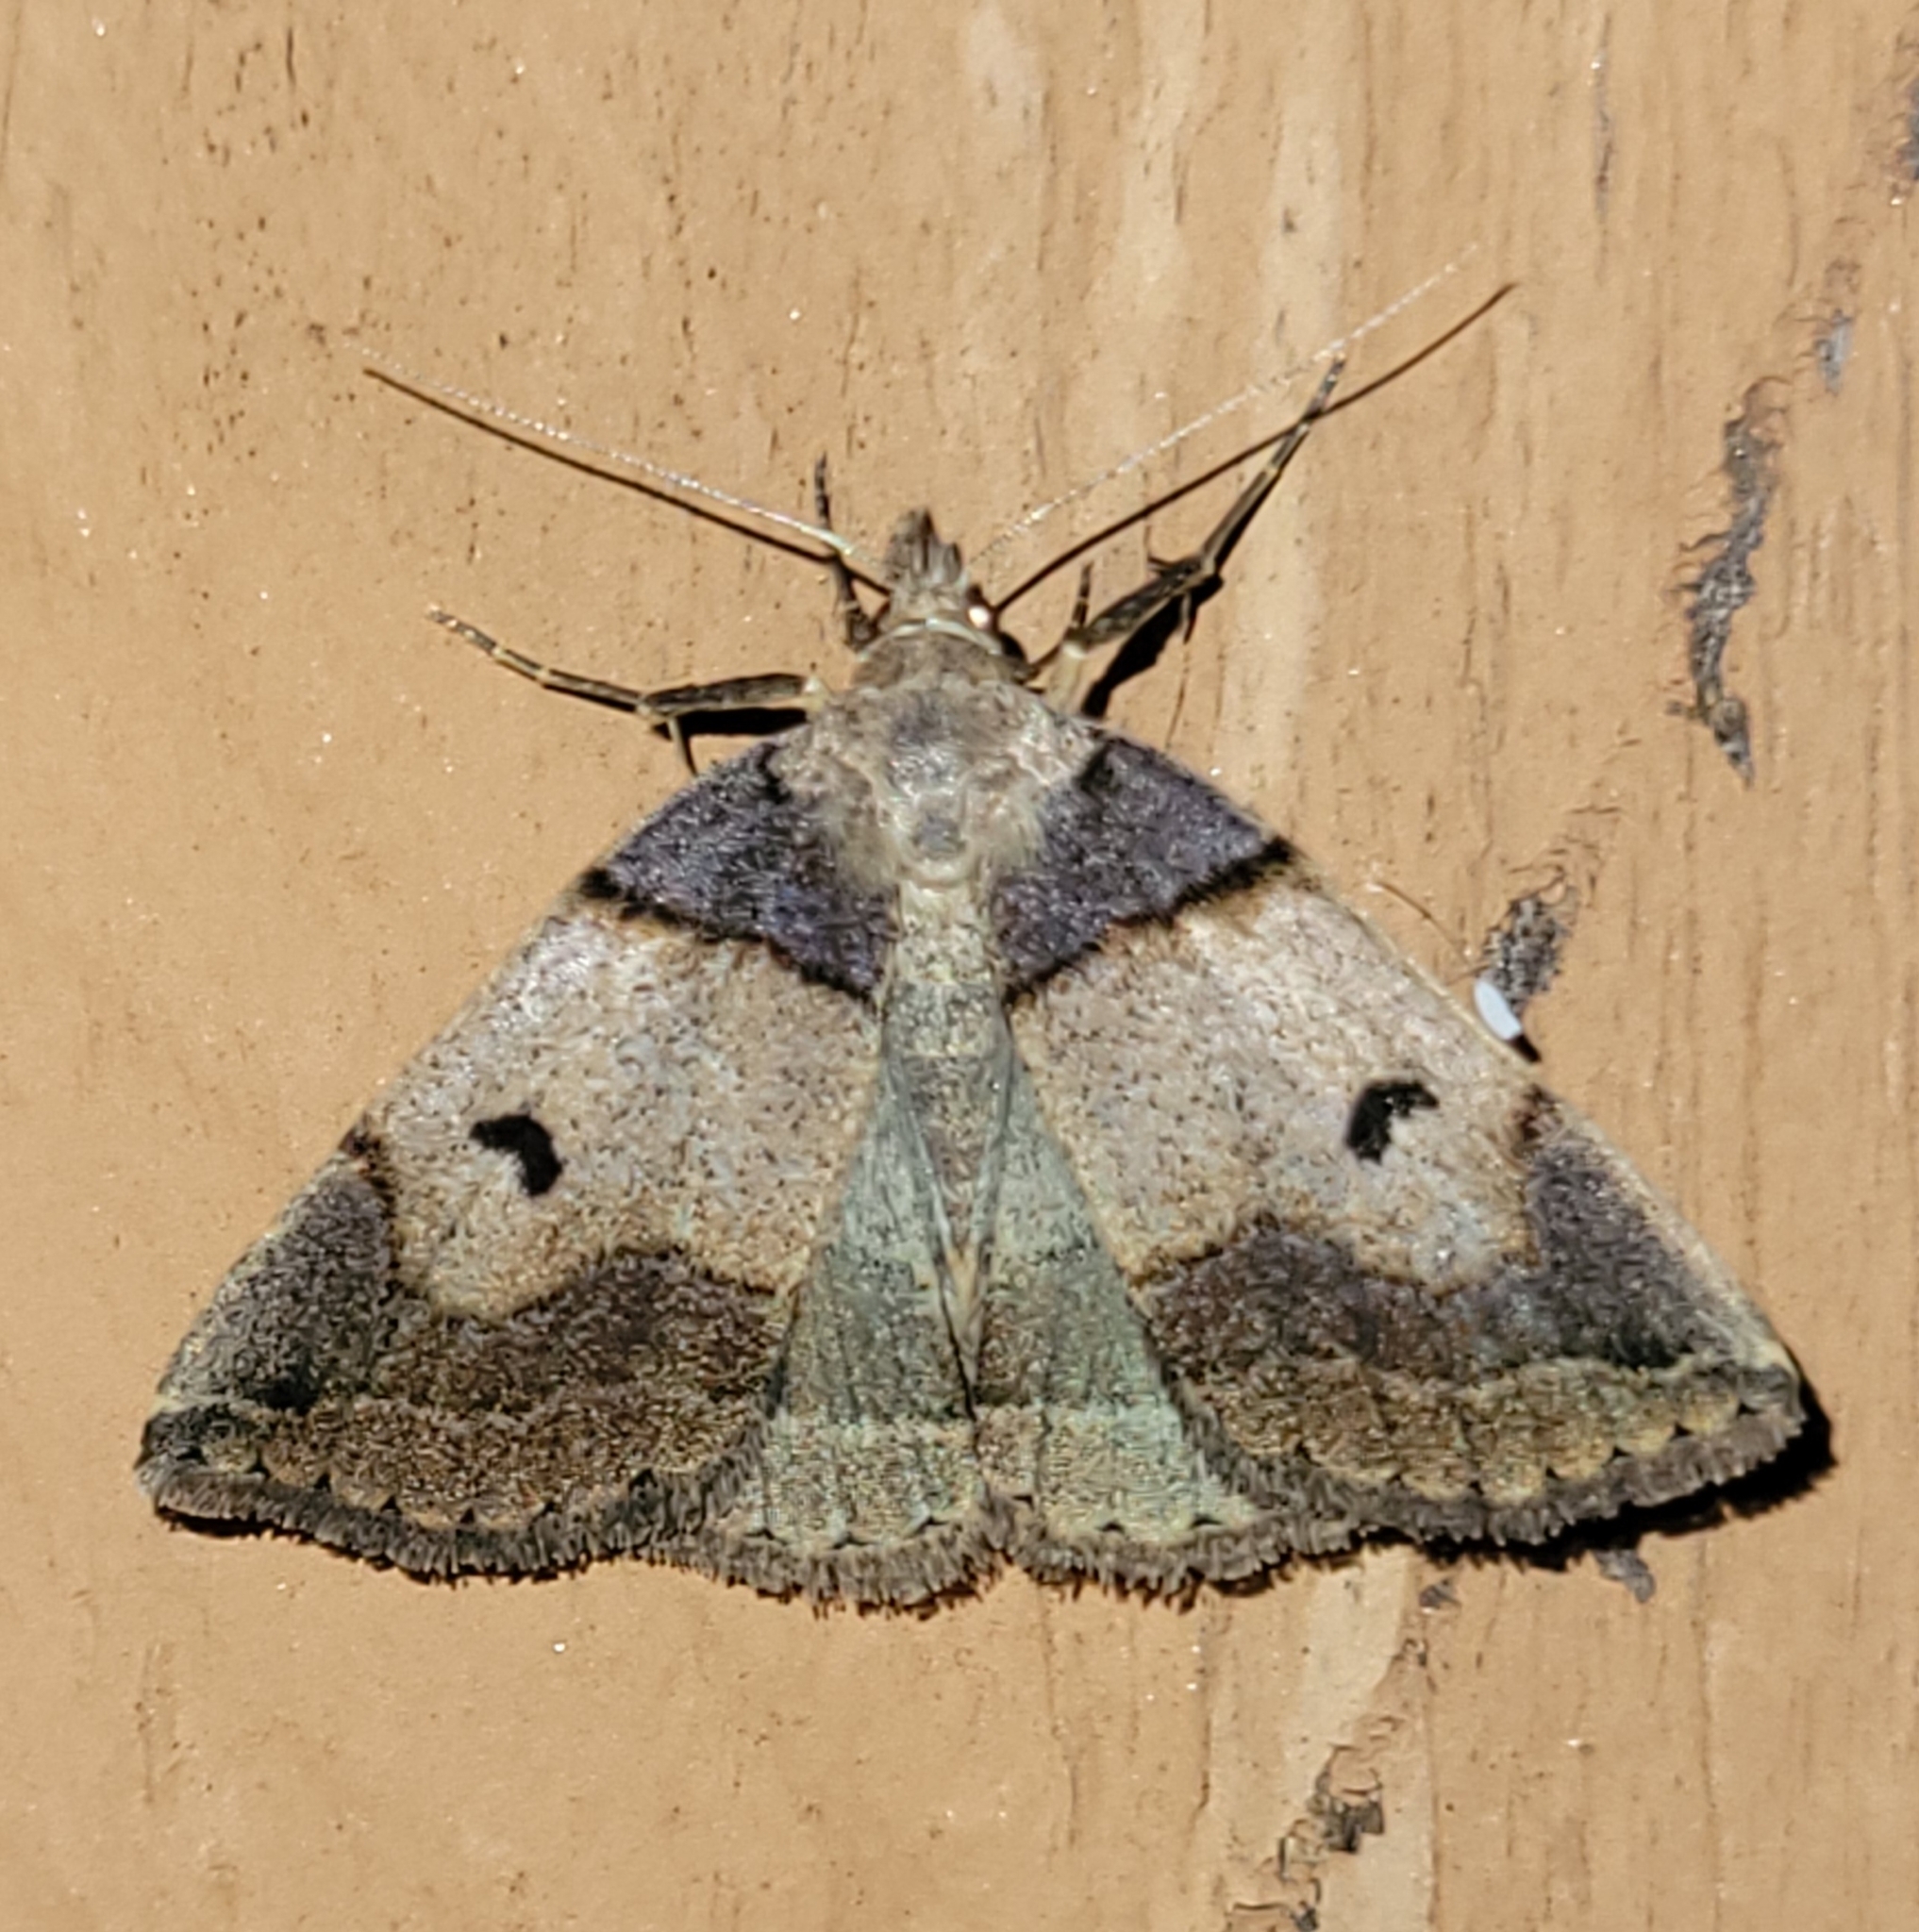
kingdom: Animalia
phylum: Arthropoda
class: Insecta
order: Lepidoptera
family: Erebidae
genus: Zanclognatha
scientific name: Zanclognatha laevigata
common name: Variable fan-foot
